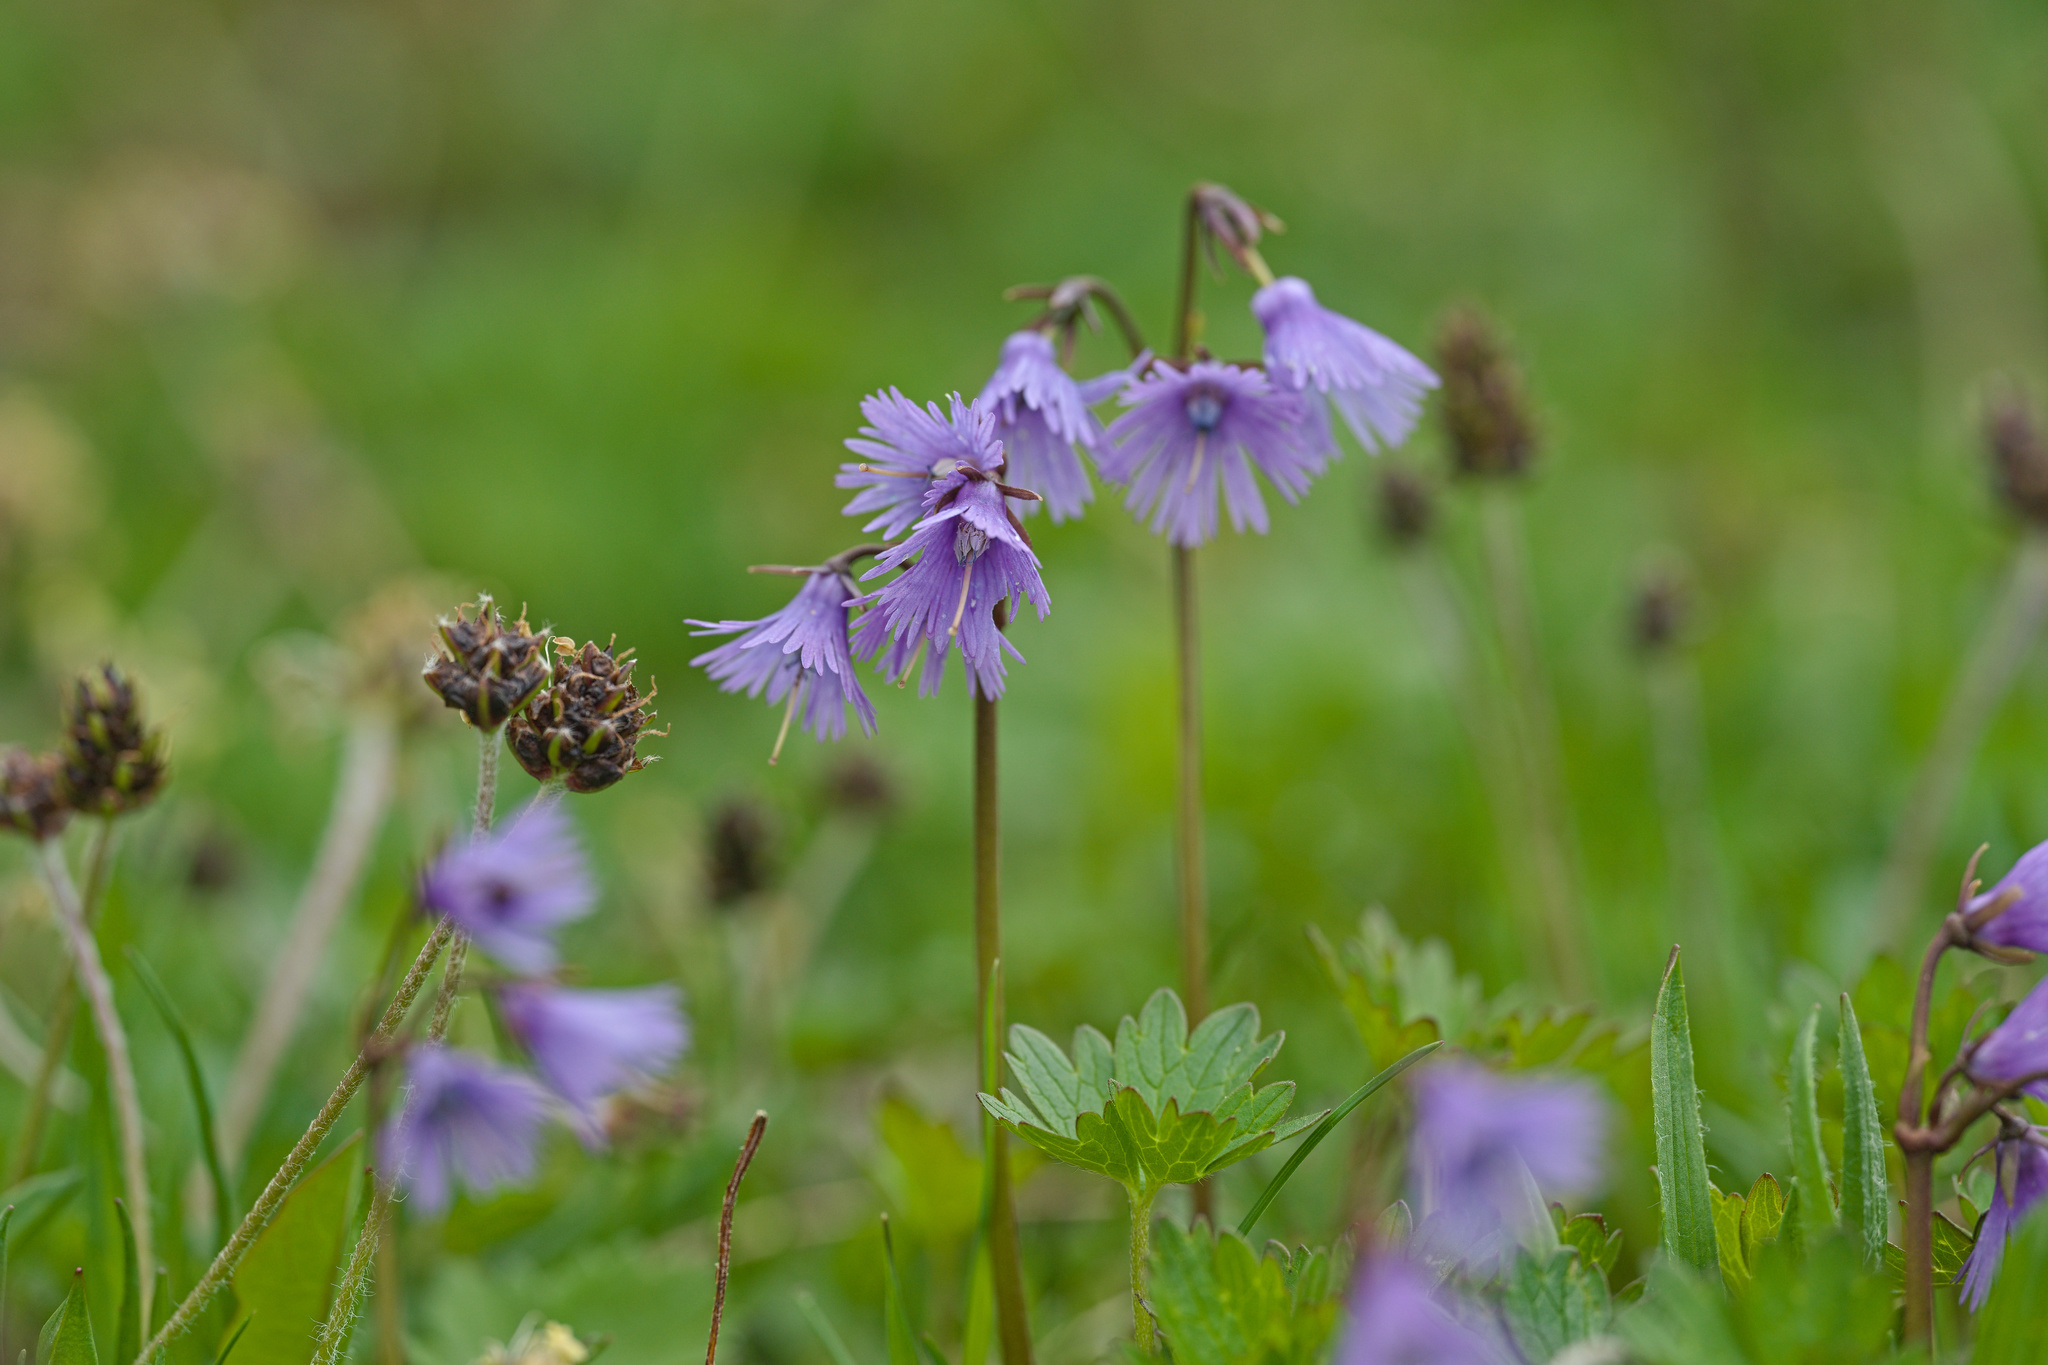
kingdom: Plantae
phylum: Tracheophyta
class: Magnoliopsida
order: Ericales
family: Primulaceae
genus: Soldanella
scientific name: Soldanella alpina
